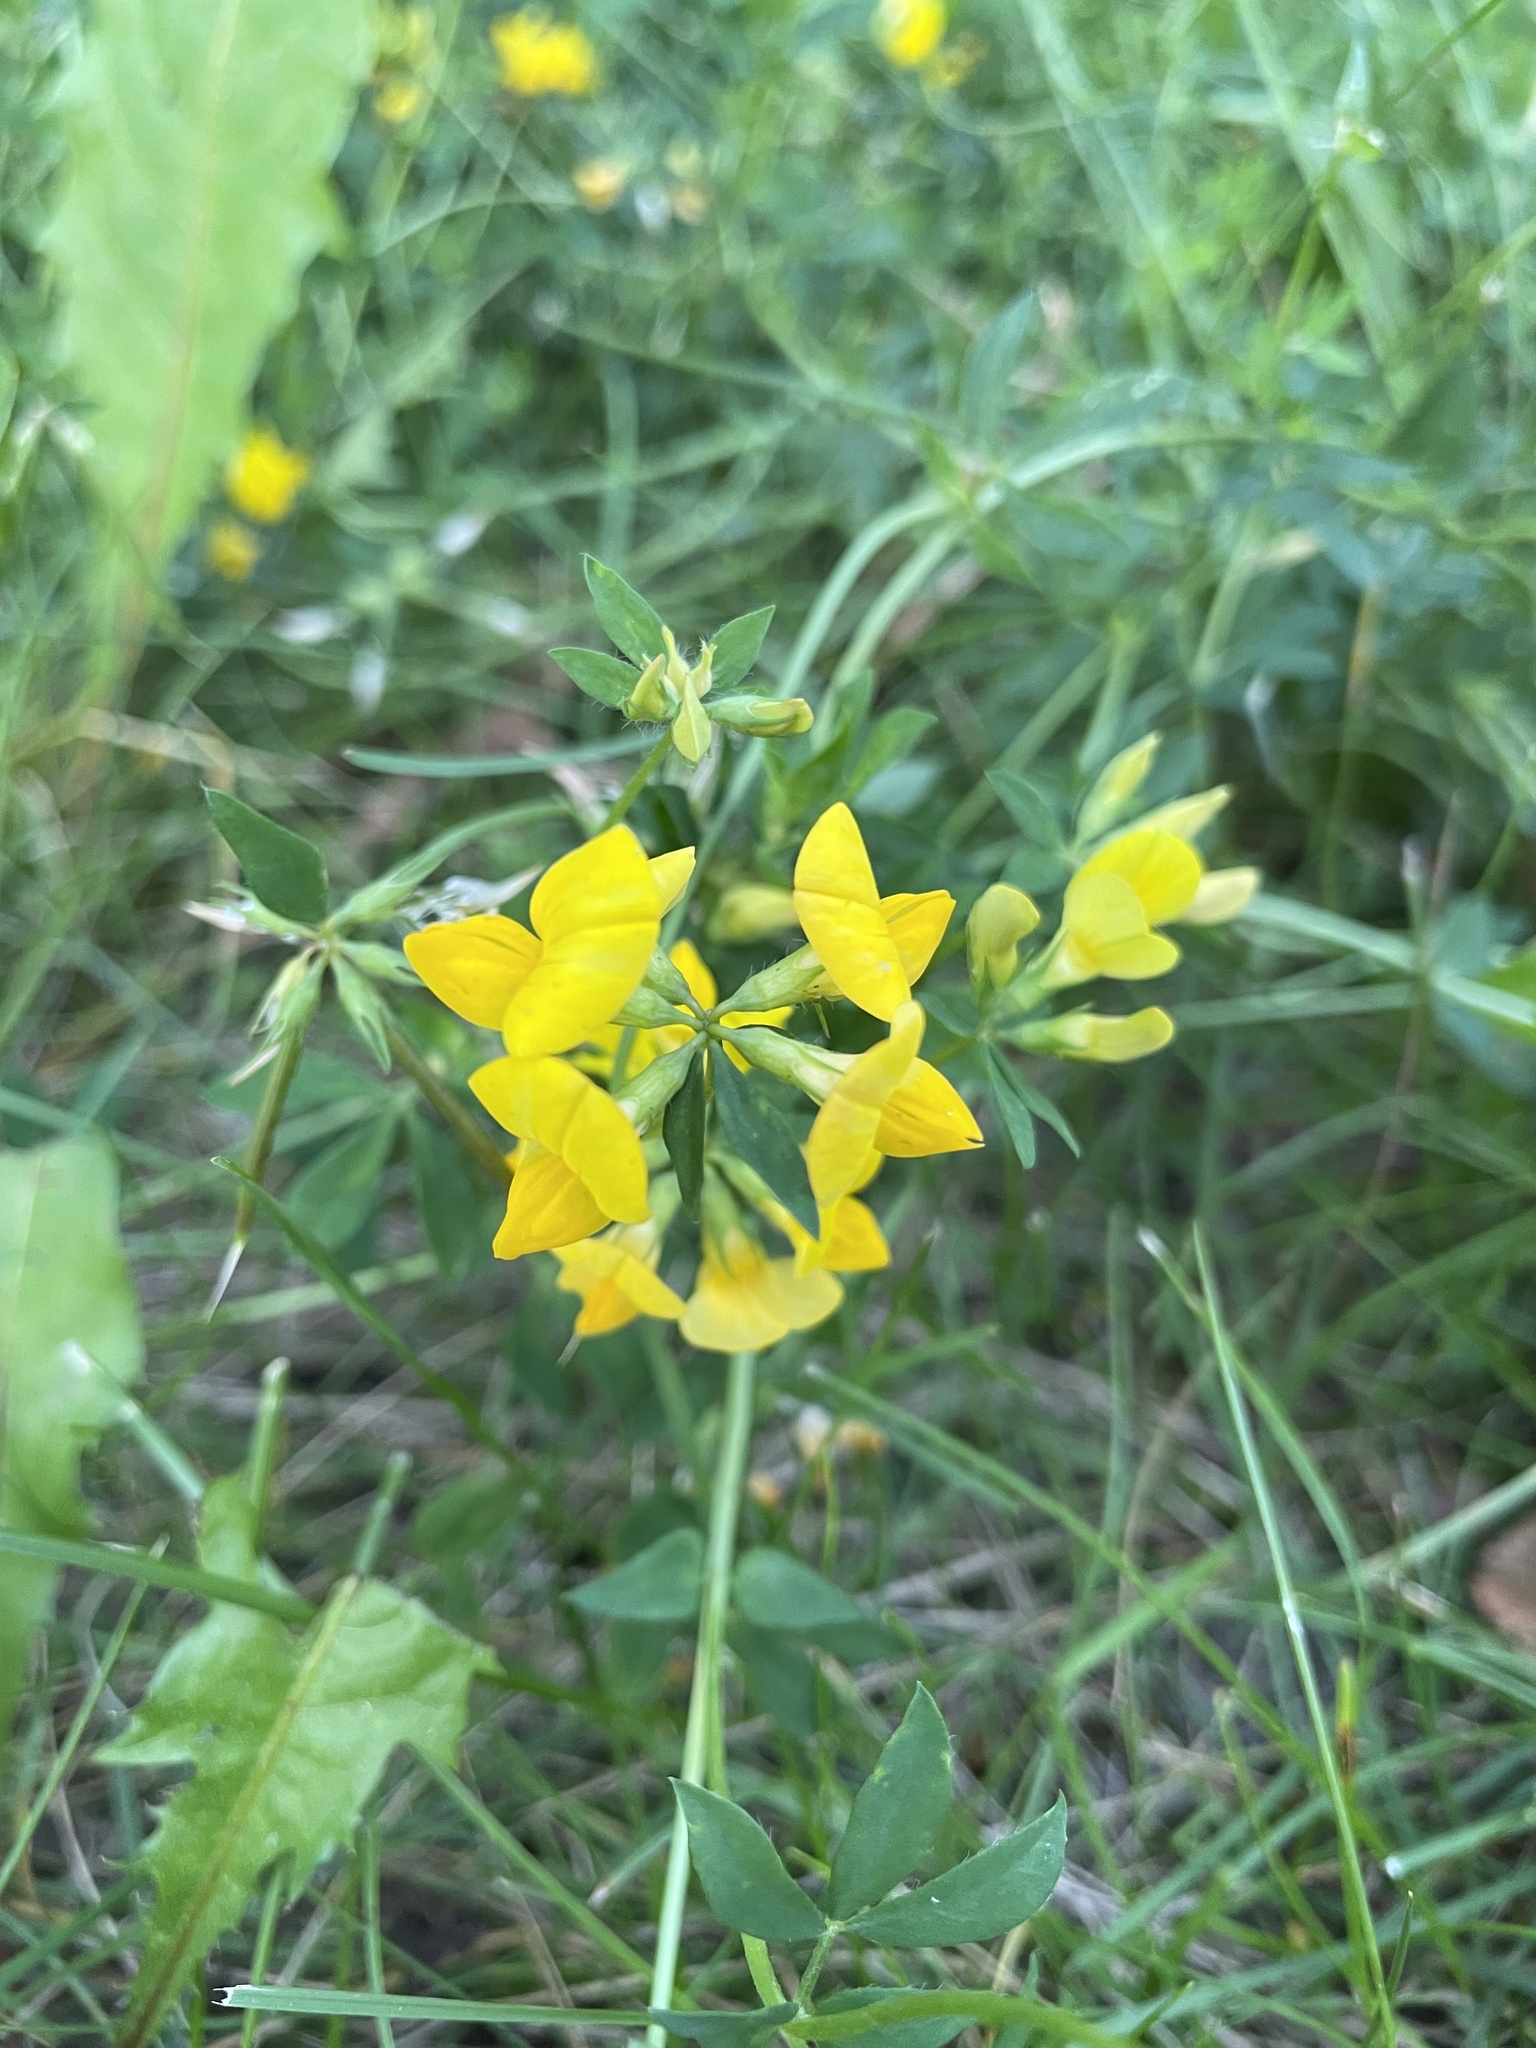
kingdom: Plantae
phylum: Tracheophyta
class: Magnoliopsida
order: Fabales
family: Fabaceae
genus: Lotus
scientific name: Lotus corniculatus
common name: Common bird's-foot-trefoil
